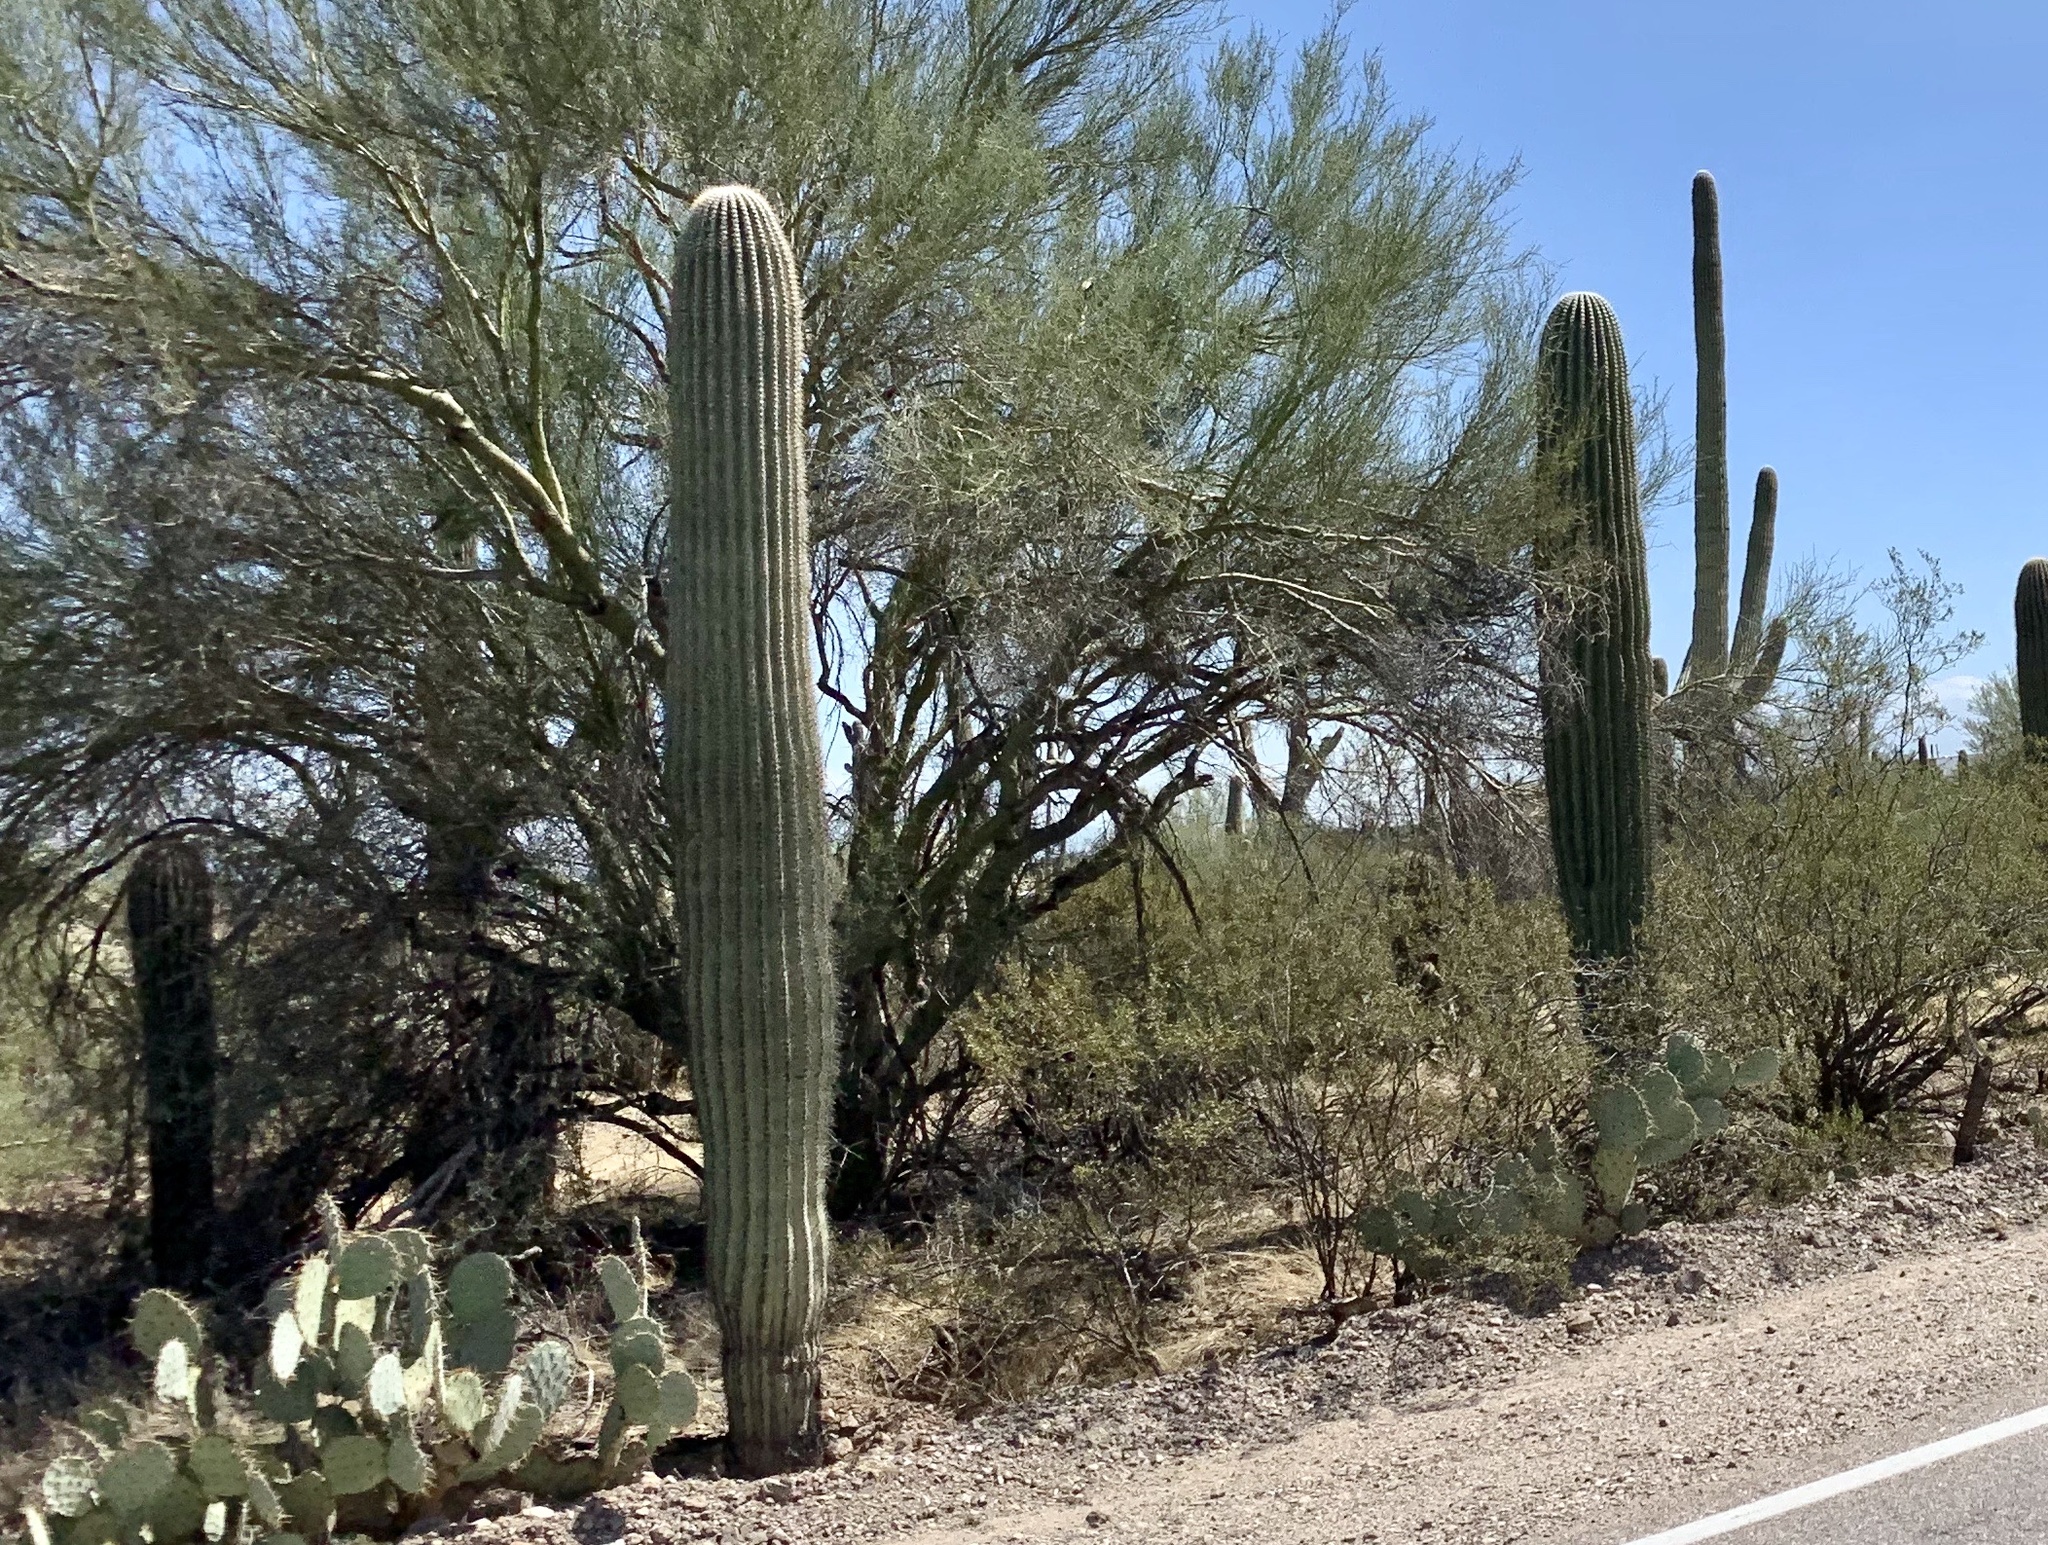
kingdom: Plantae
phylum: Tracheophyta
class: Magnoliopsida
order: Caryophyllales
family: Cactaceae
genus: Carnegiea
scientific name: Carnegiea gigantea
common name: Saguaro
